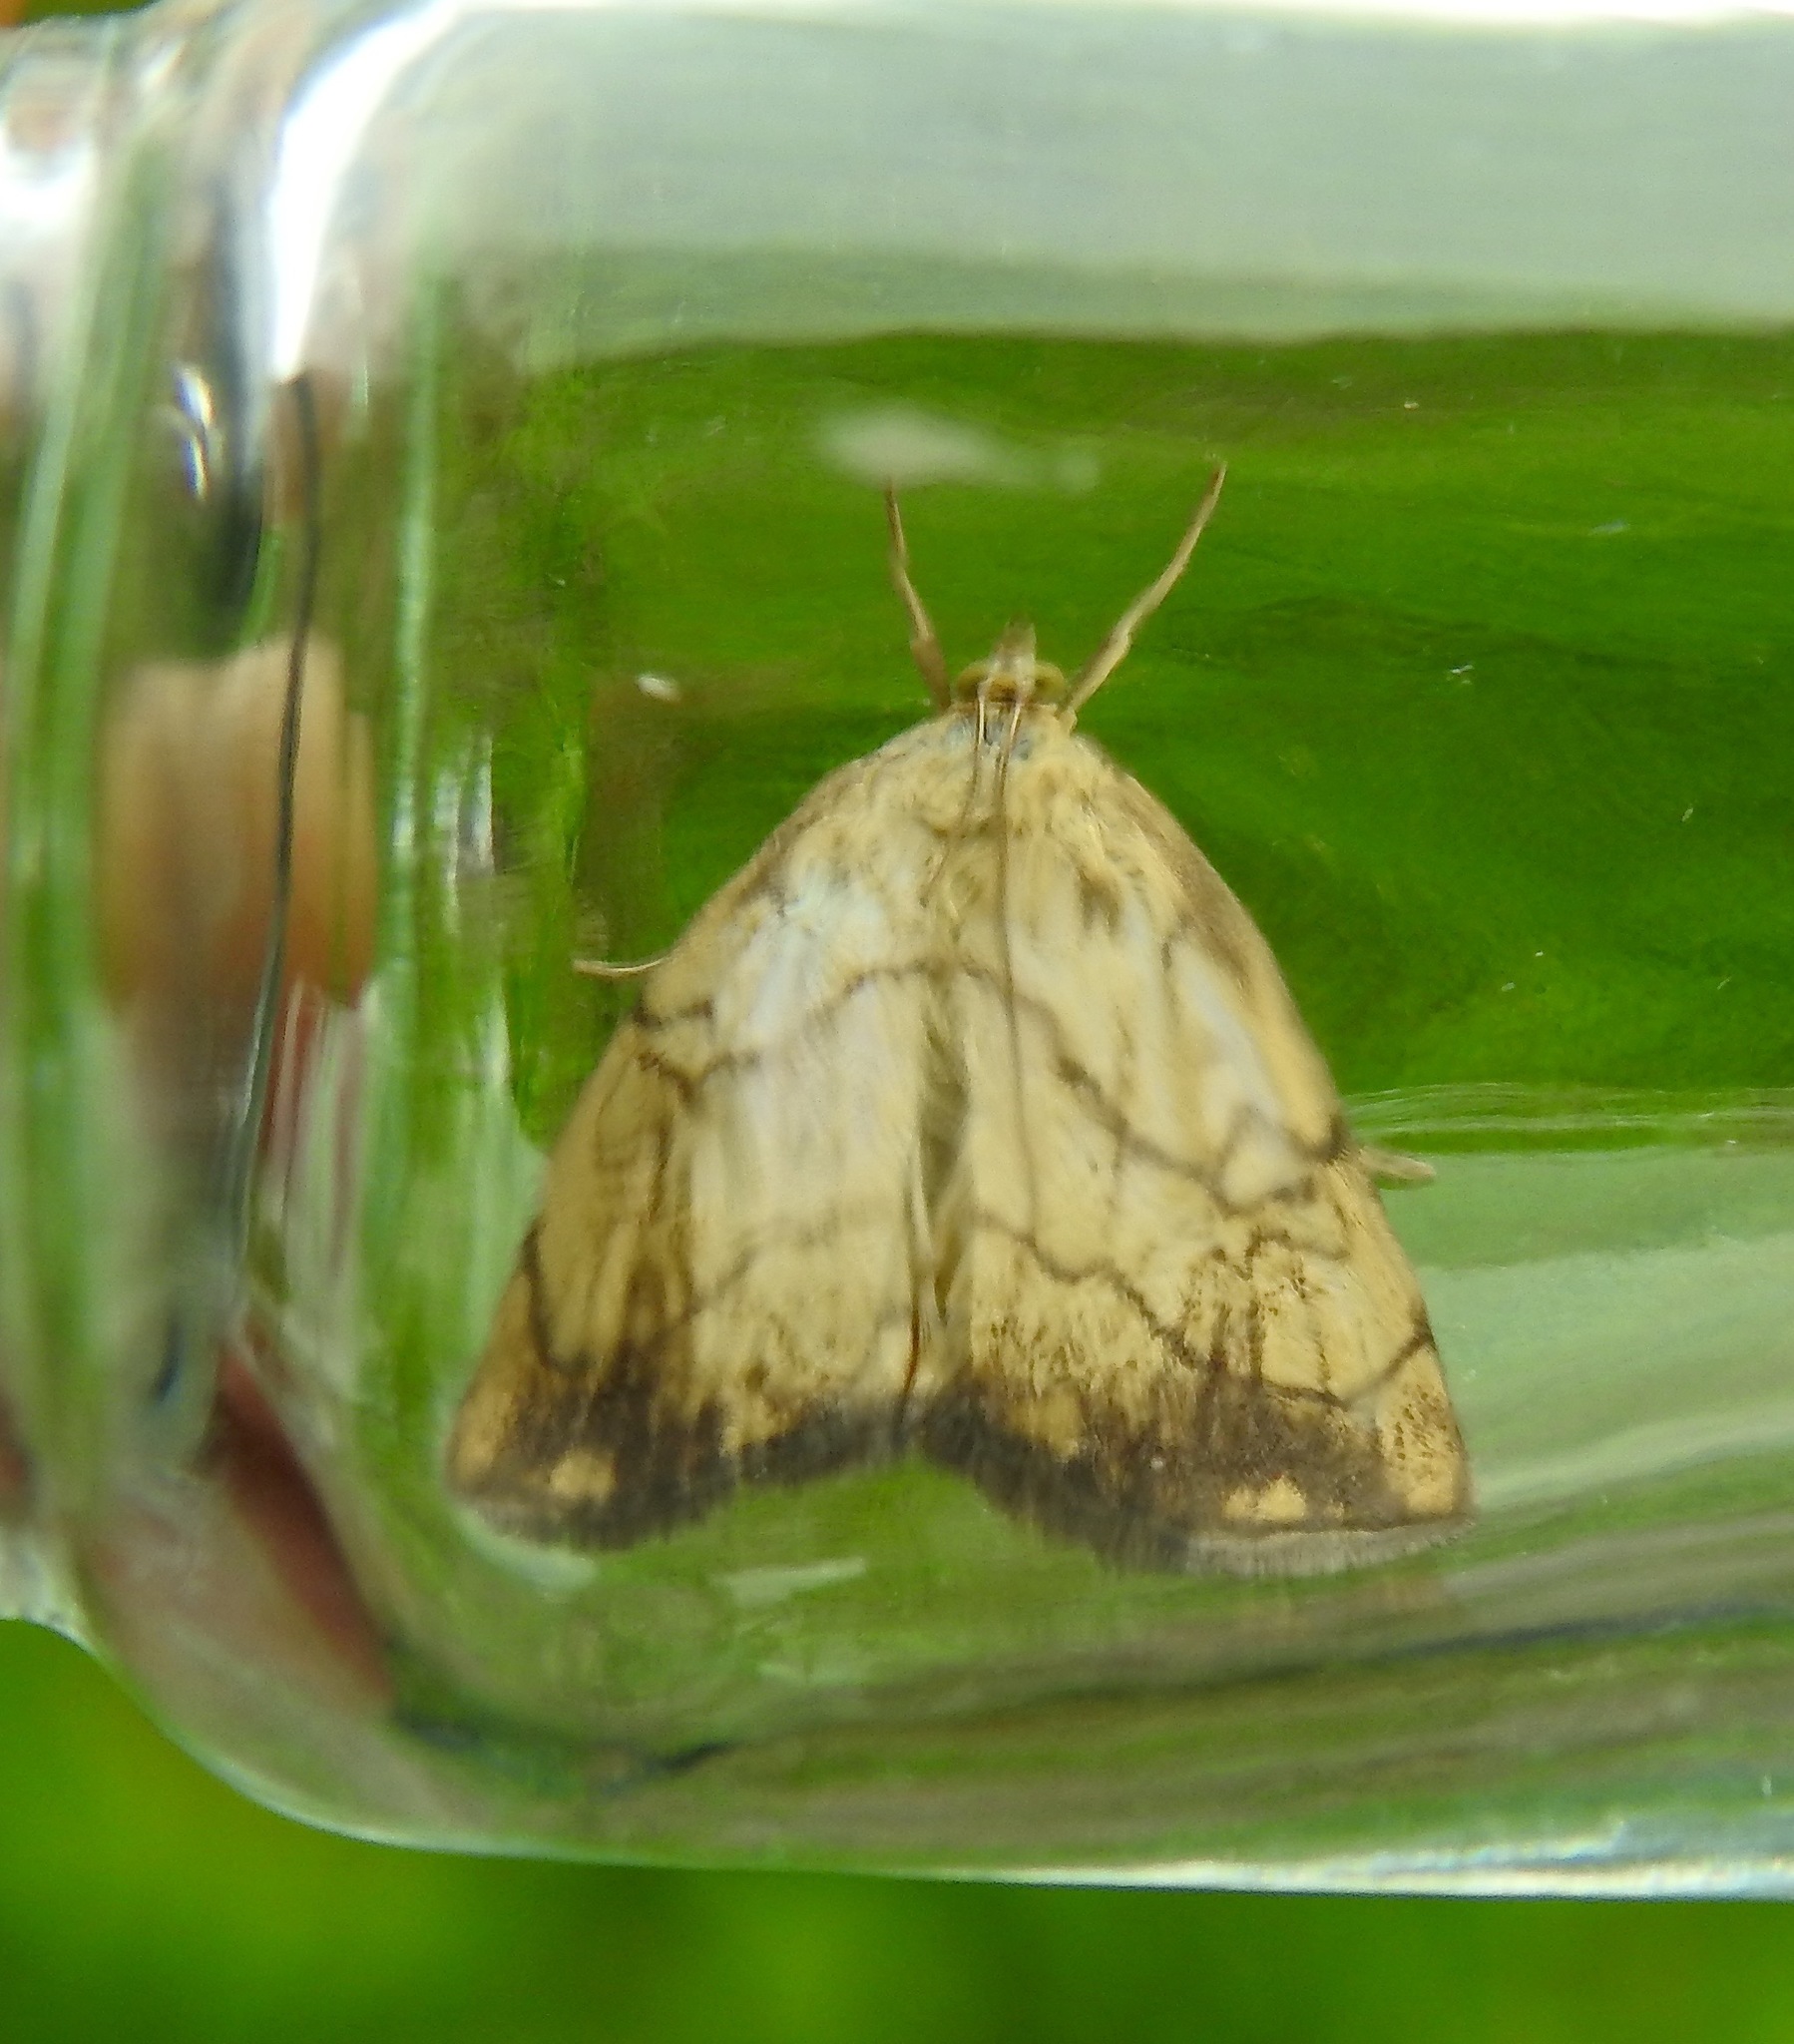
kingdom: Animalia
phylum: Arthropoda
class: Insecta
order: Lepidoptera
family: Crambidae
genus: Evergestis
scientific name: Evergestis pallidata
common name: Chequered pearl
